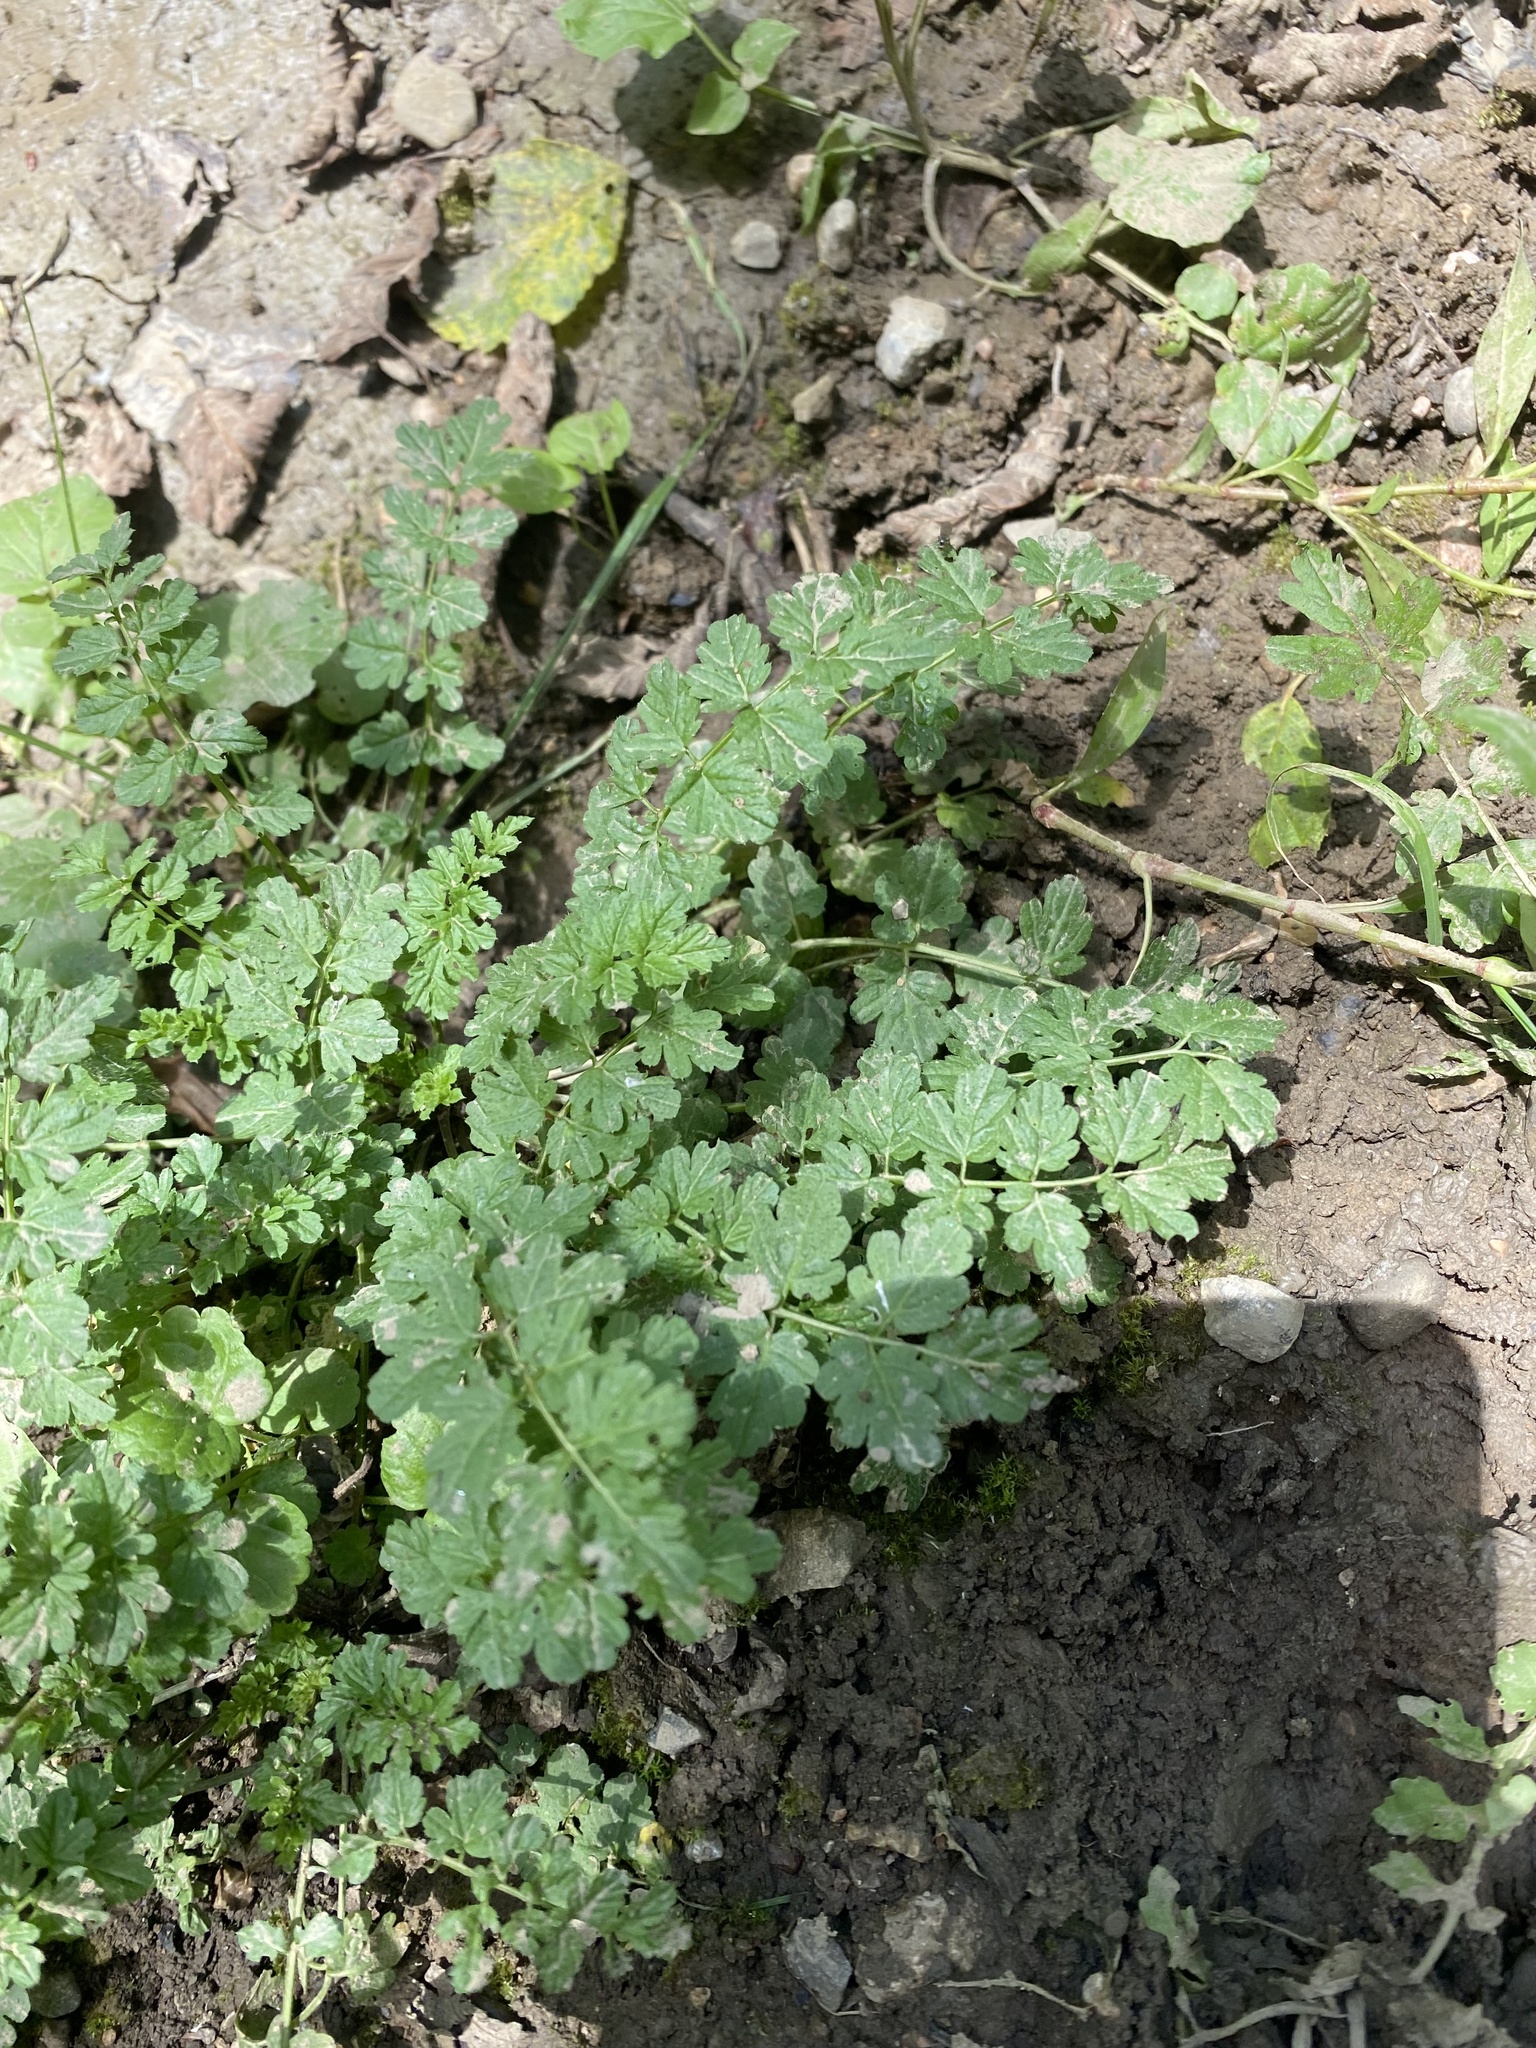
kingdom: Plantae
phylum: Tracheophyta
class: Magnoliopsida
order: Brassicales
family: Brassicaceae
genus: Cardamine
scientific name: Cardamine impatiens
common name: Narrow-leaved bitter-cress
